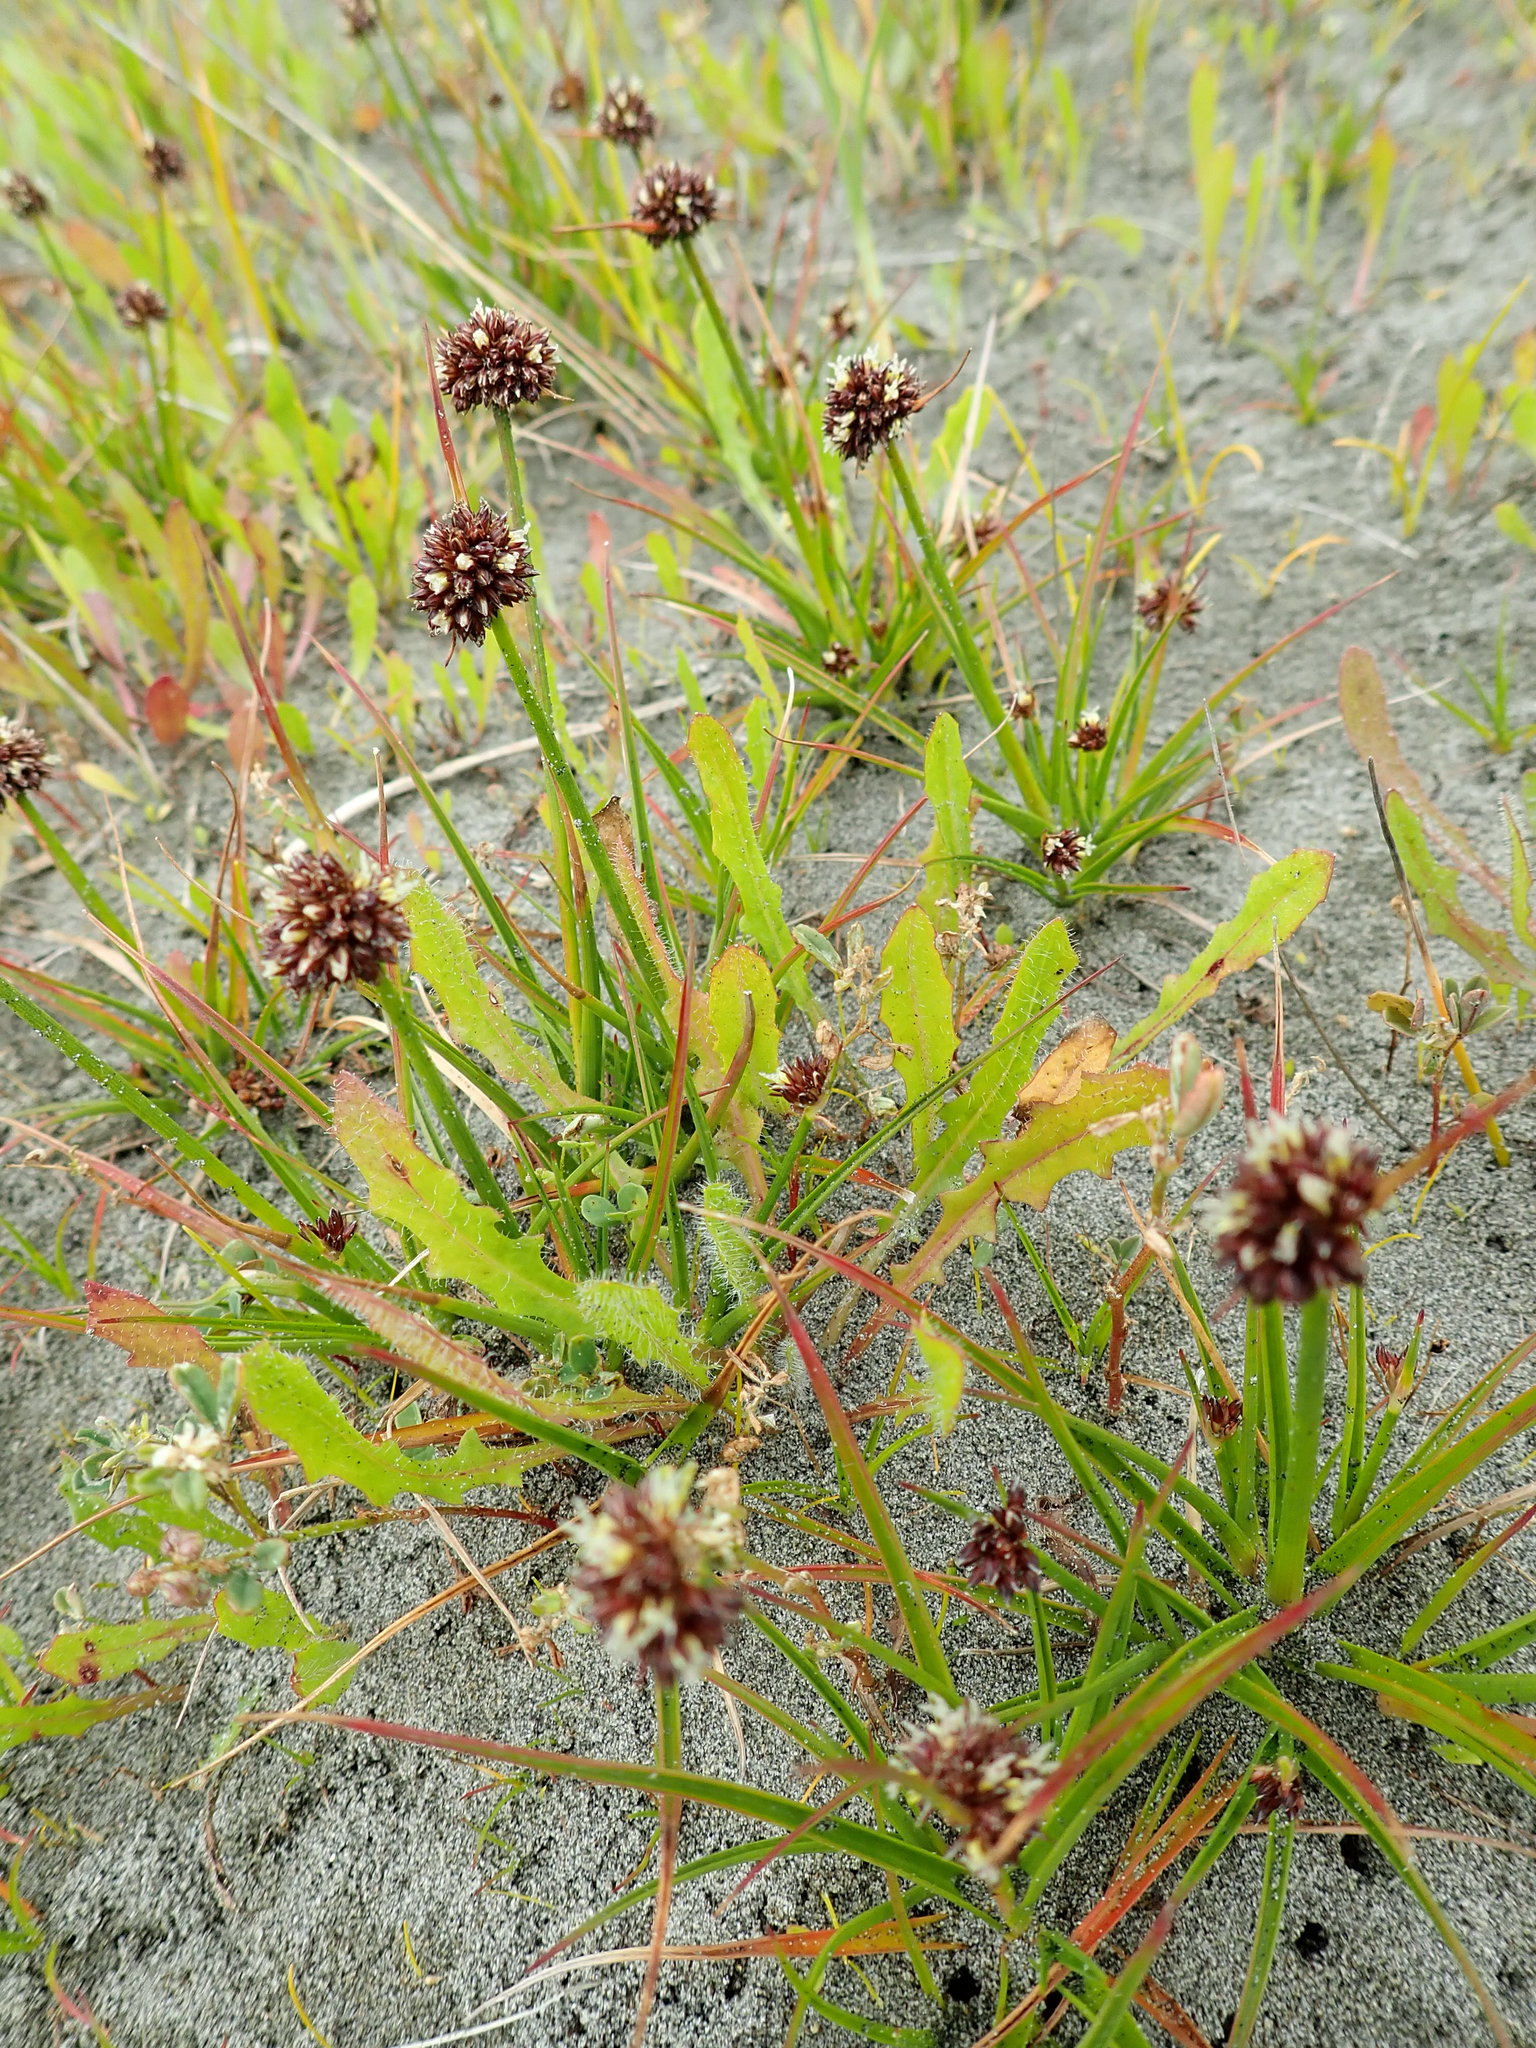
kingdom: Plantae
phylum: Tracheophyta
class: Liliopsida
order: Poales
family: Juncaceae
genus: Juncus
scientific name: Juncus caespiticius
